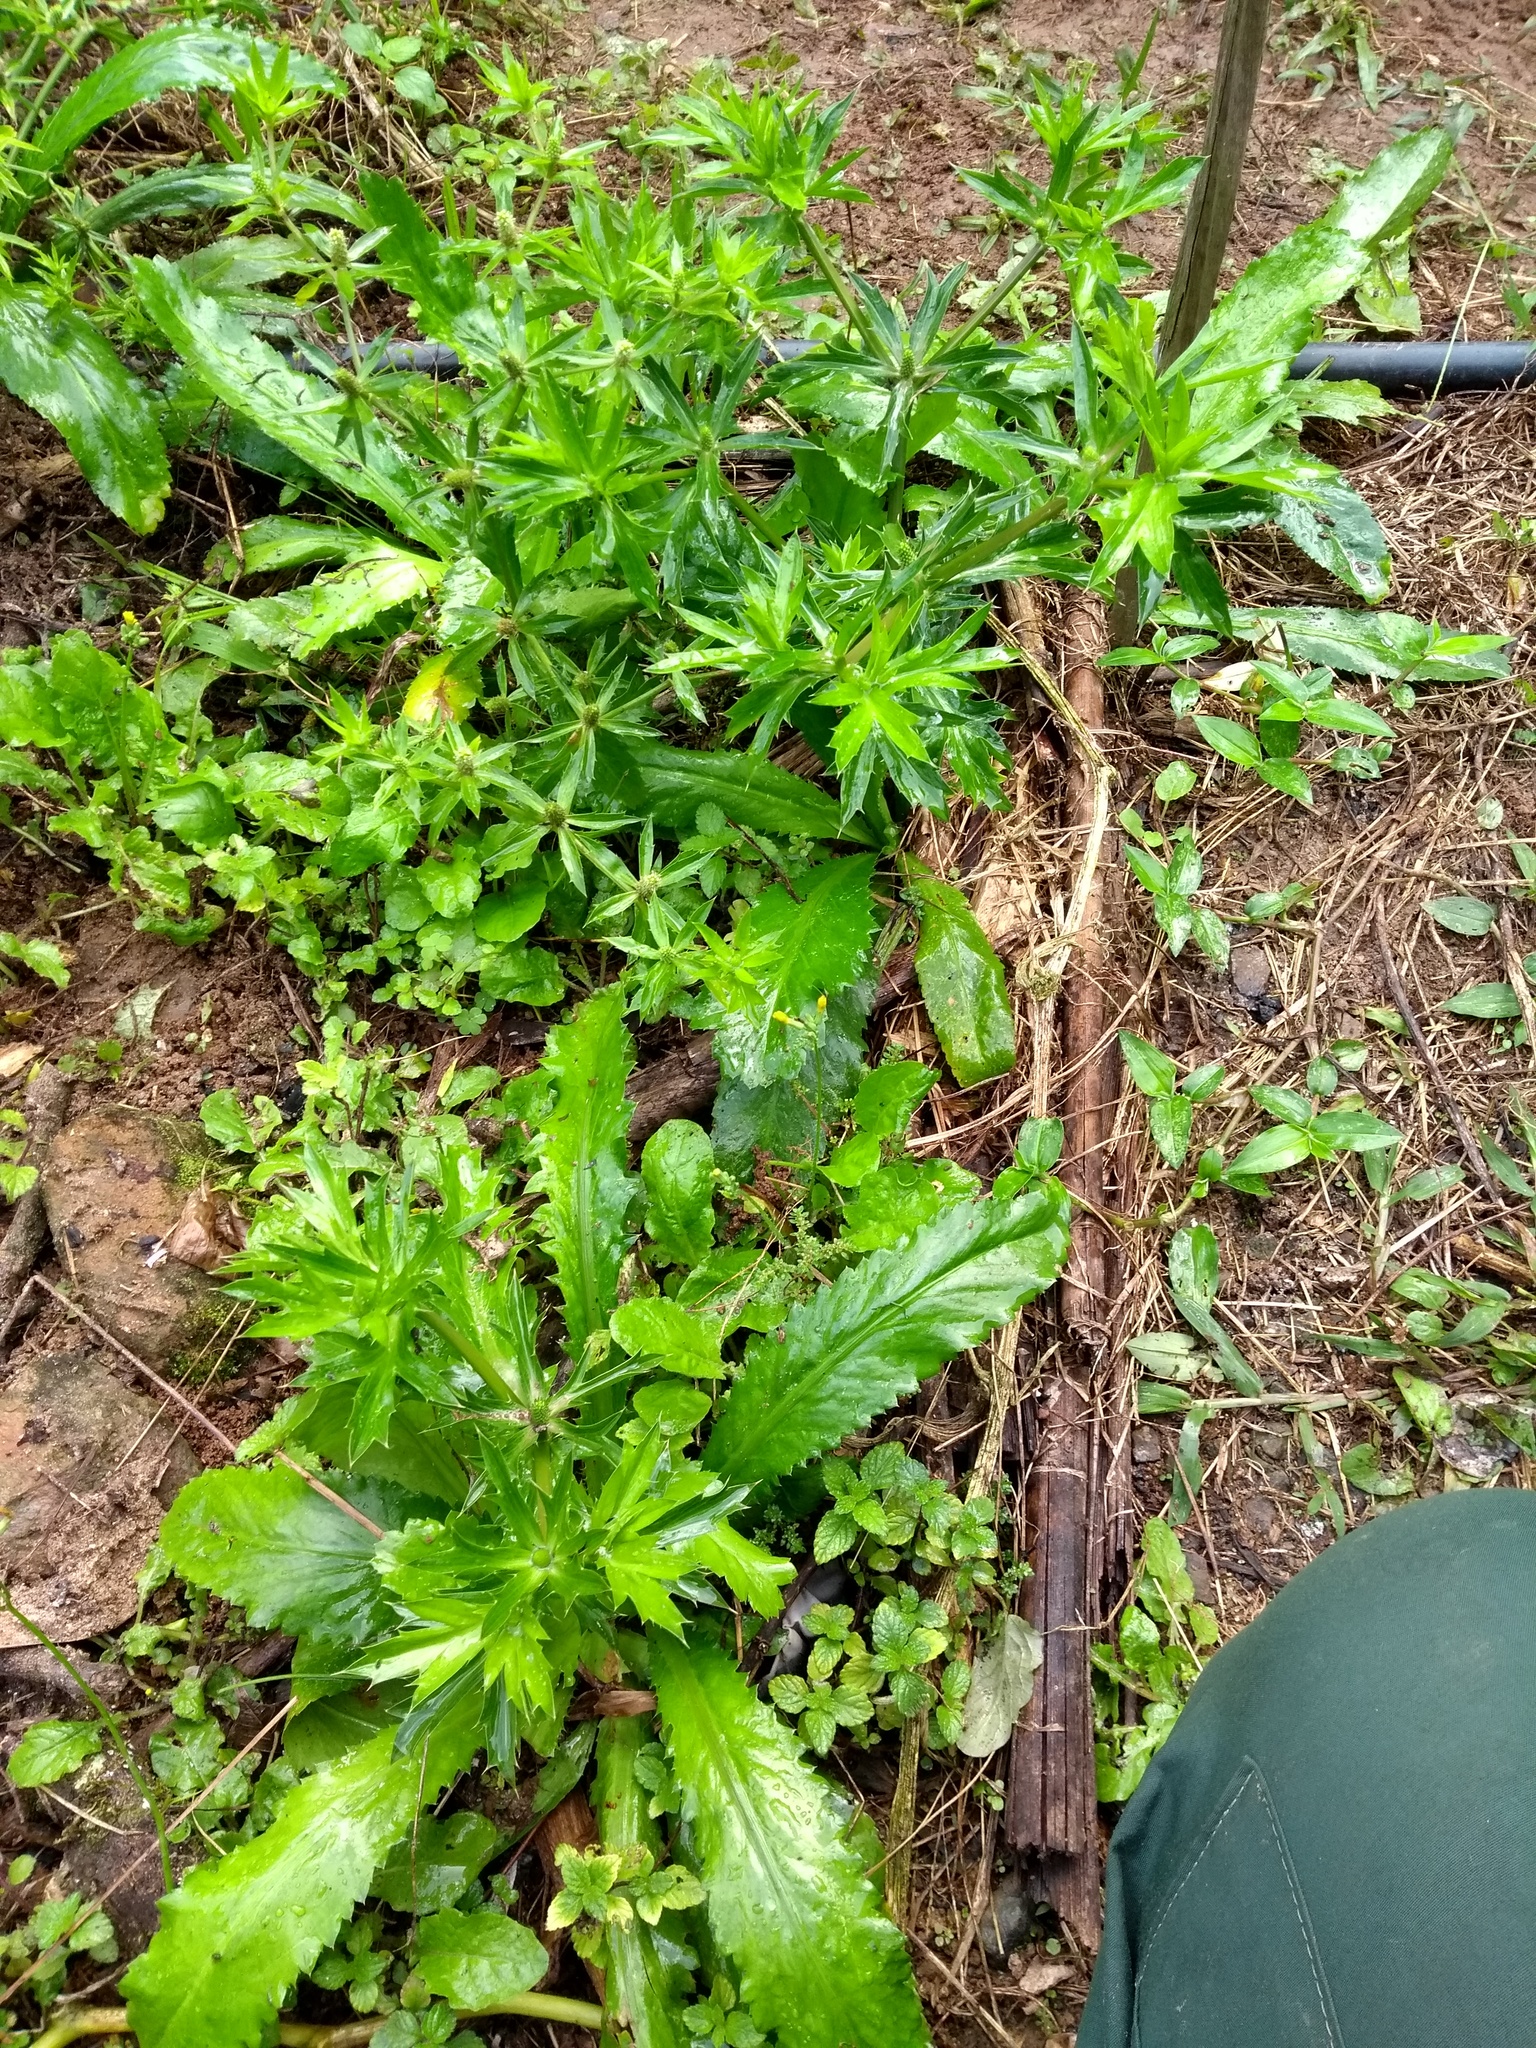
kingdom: Plantae
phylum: Tracheophyta
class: Magnoliopsida
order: Apiales
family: Apiaceae
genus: Eryngium
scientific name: Eryngium foetidum
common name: Fitweed
